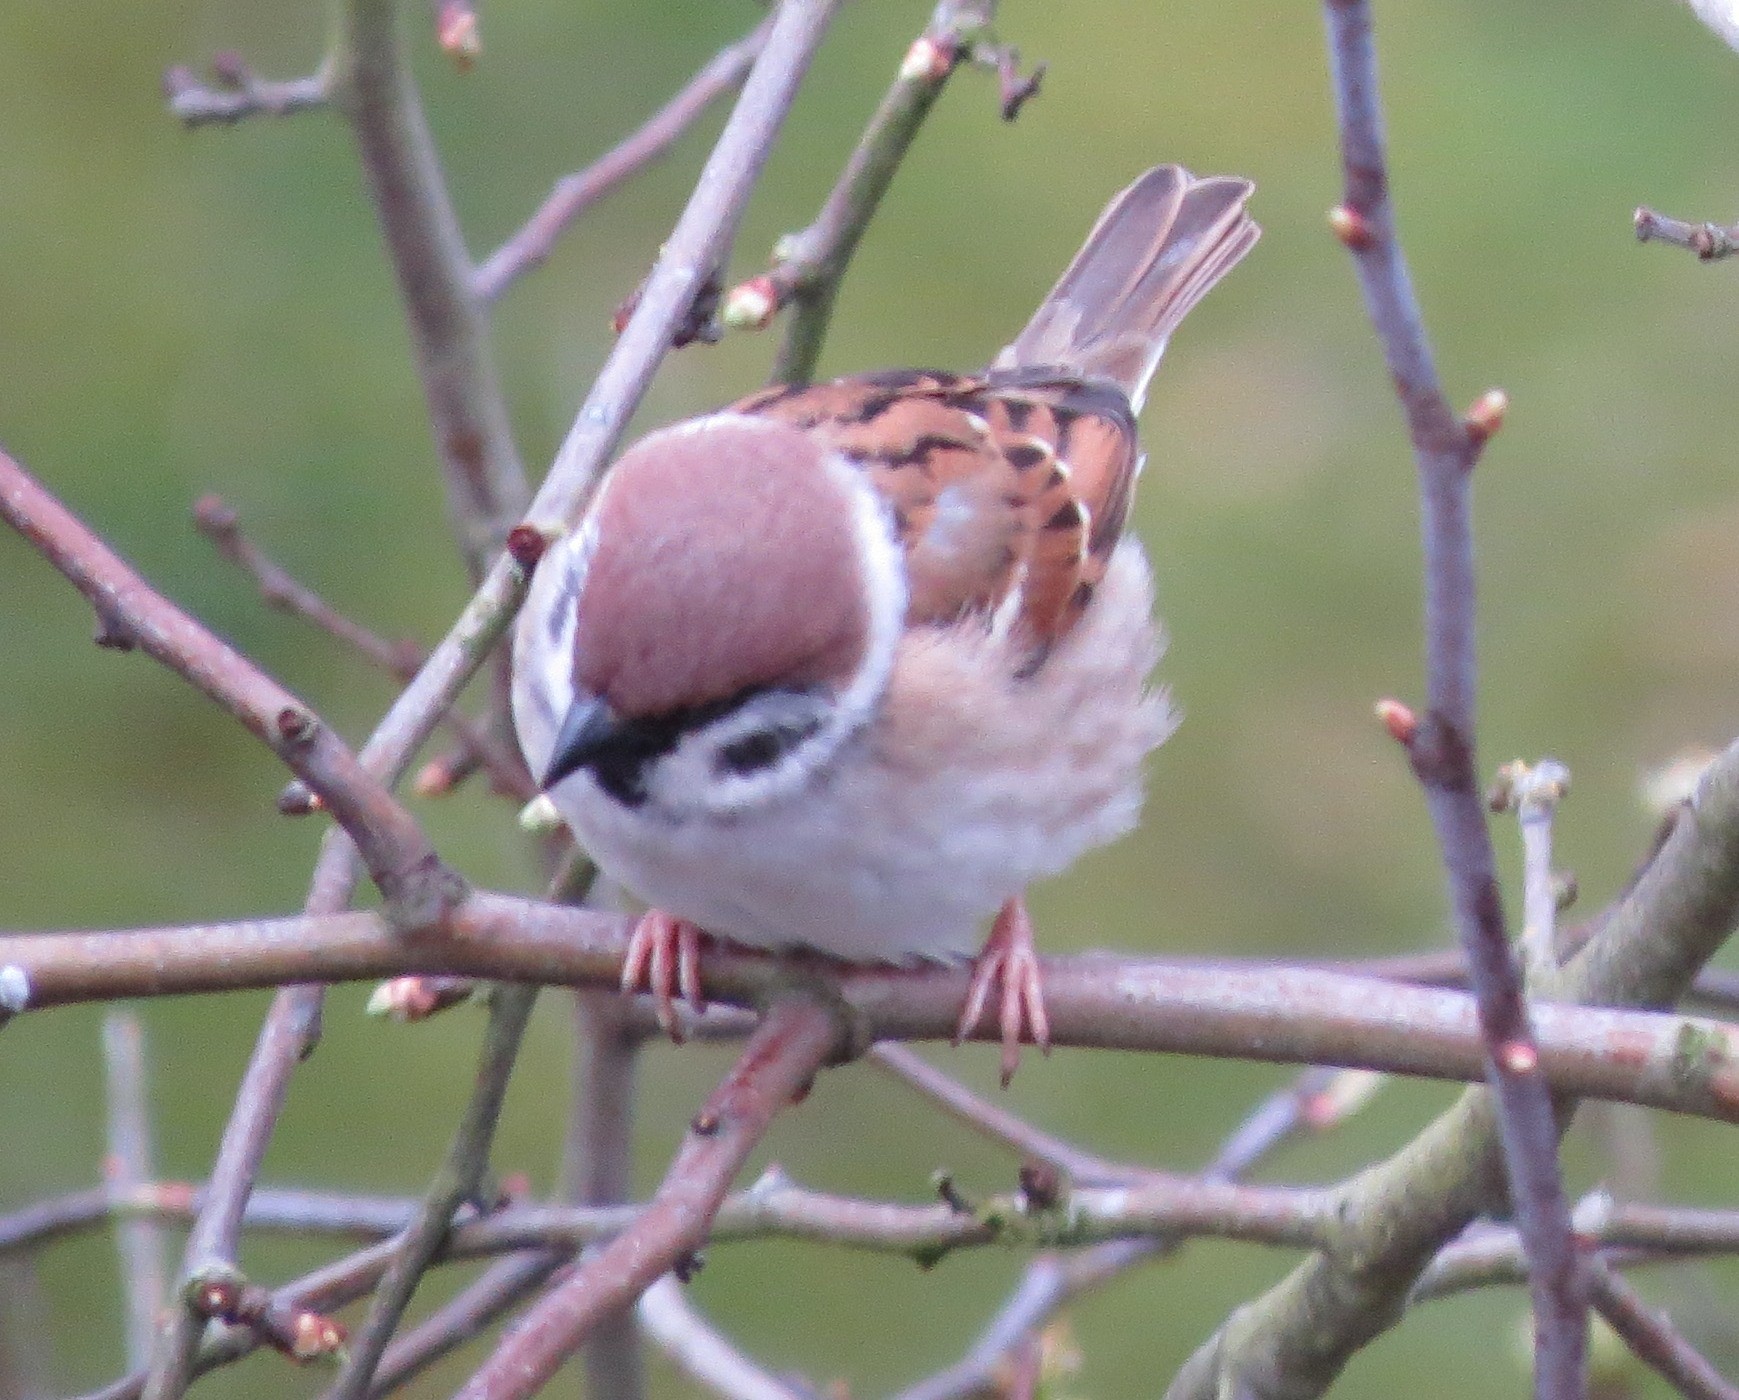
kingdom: Animalia
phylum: Chordata
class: Aves
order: Passeriformes
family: Passeridae
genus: Passer
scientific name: Passer montanus
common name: Eurasian tree sparrow
